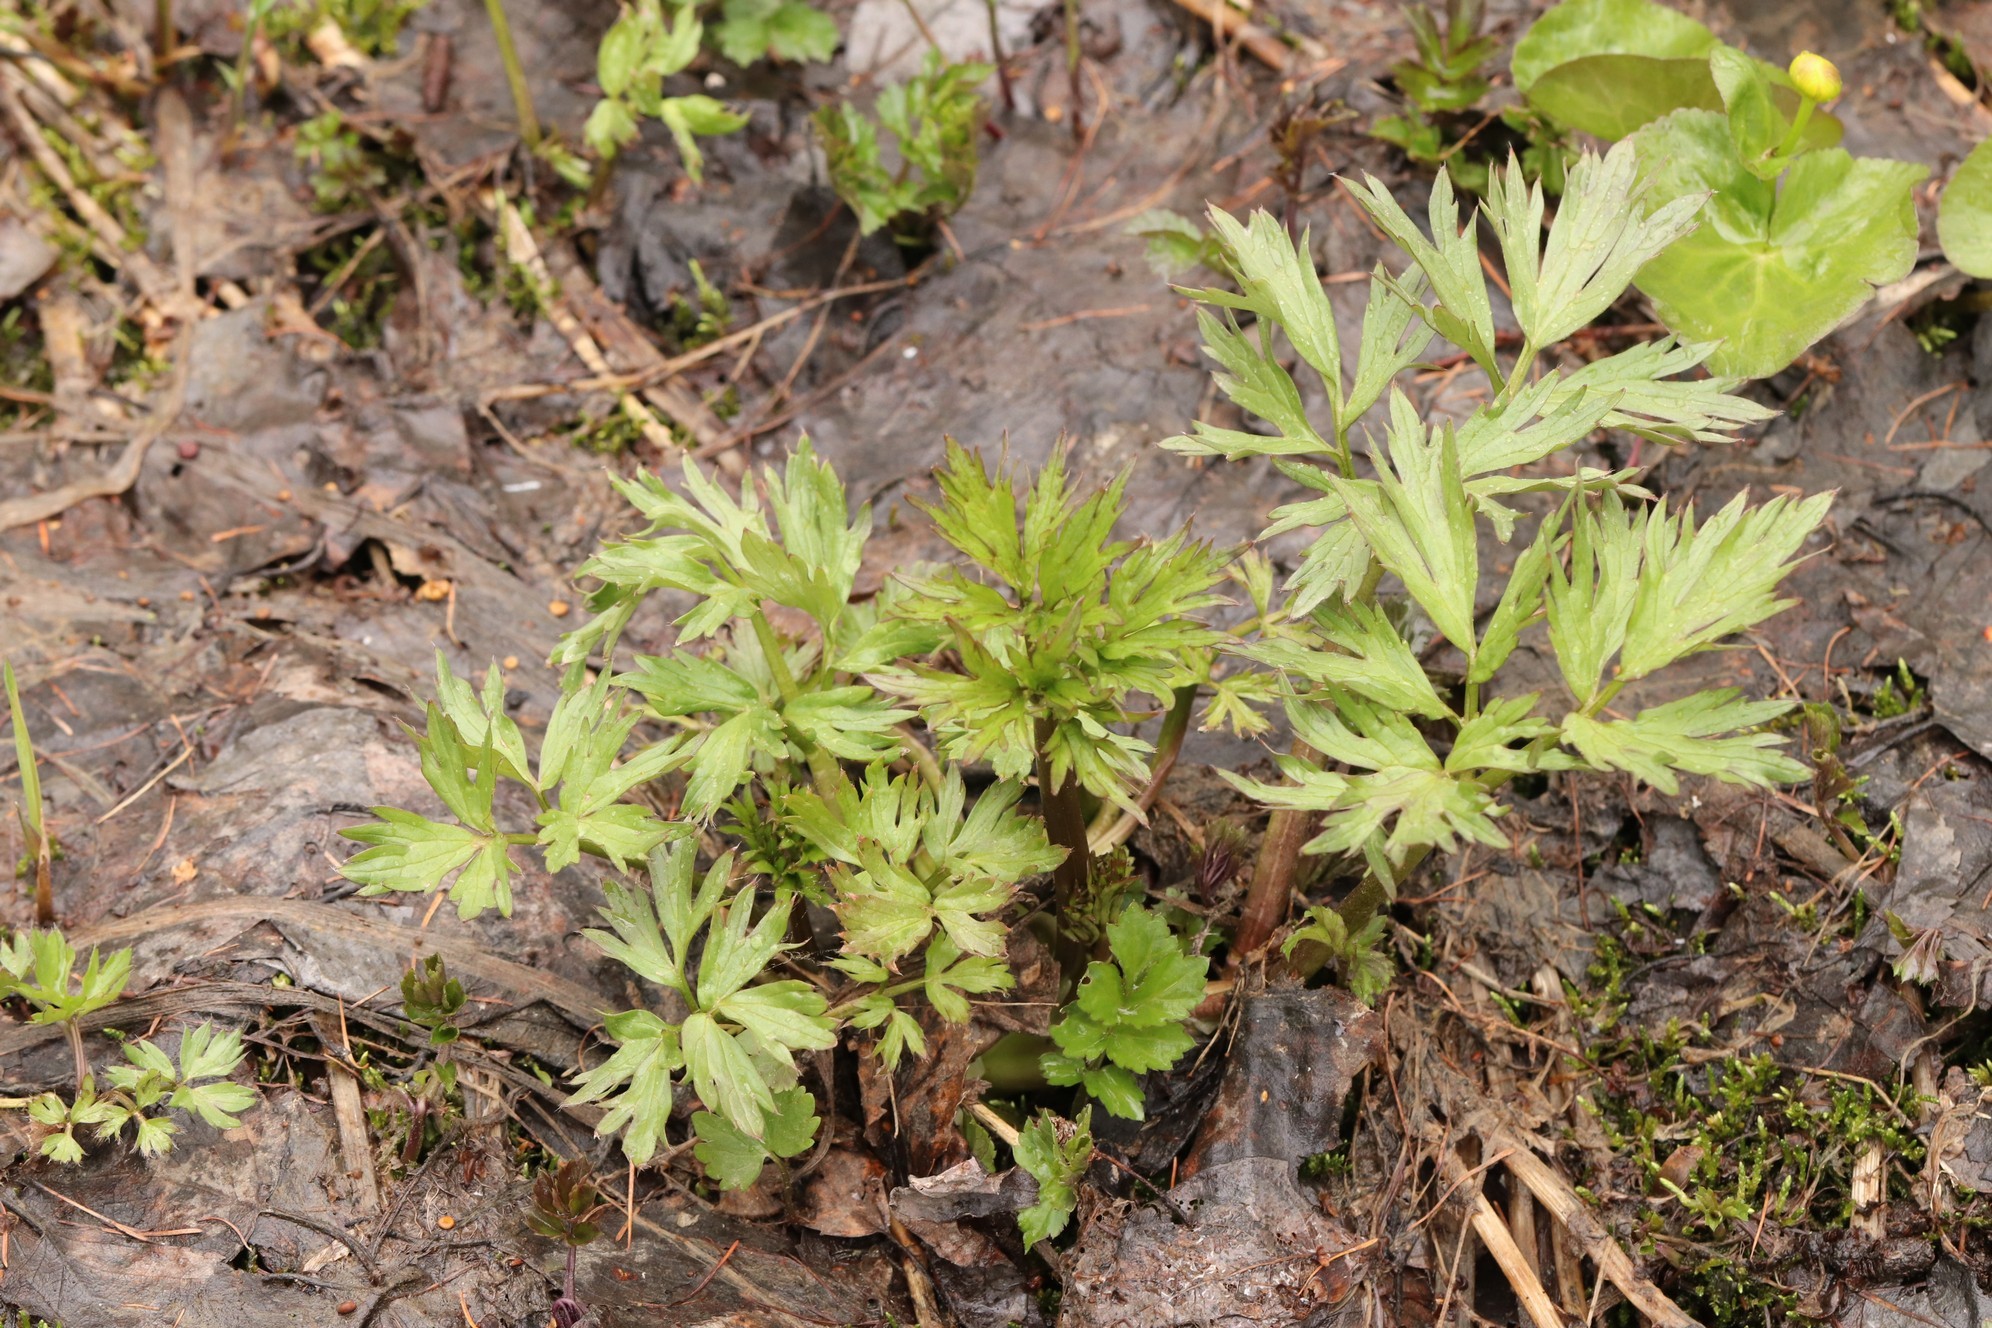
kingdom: Plantae
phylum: Tracheophyta
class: Magnoliopsida
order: Ranunculales
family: Ranunculaceae
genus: Ranunculus
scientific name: Ranunculus repens
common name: Creeping buttercup
